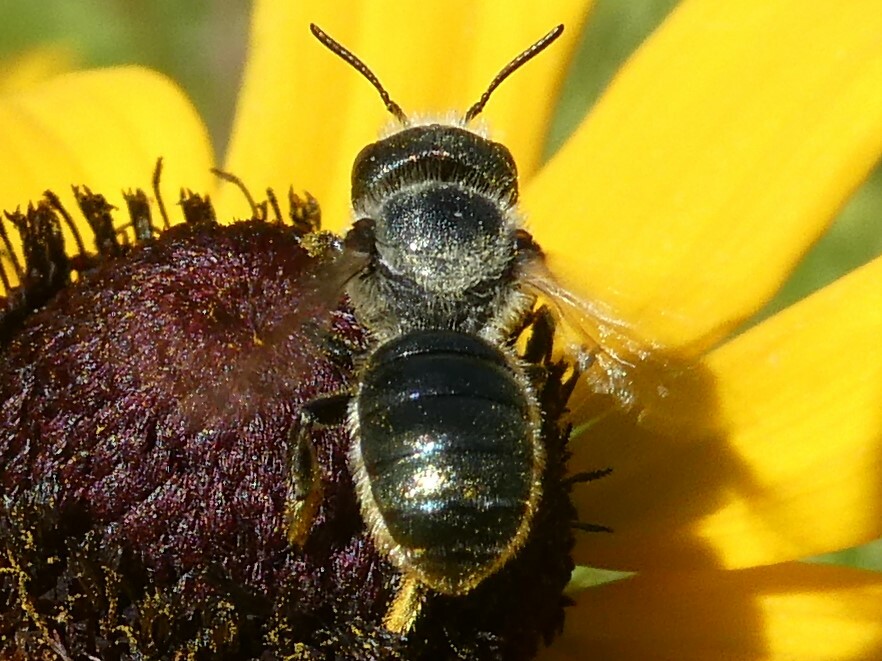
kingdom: Animalia
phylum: Arthropoda
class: Insecta
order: Hymenoptera
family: Megachilidae
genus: Osmia
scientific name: Osmia georgica
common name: Georgia mason
